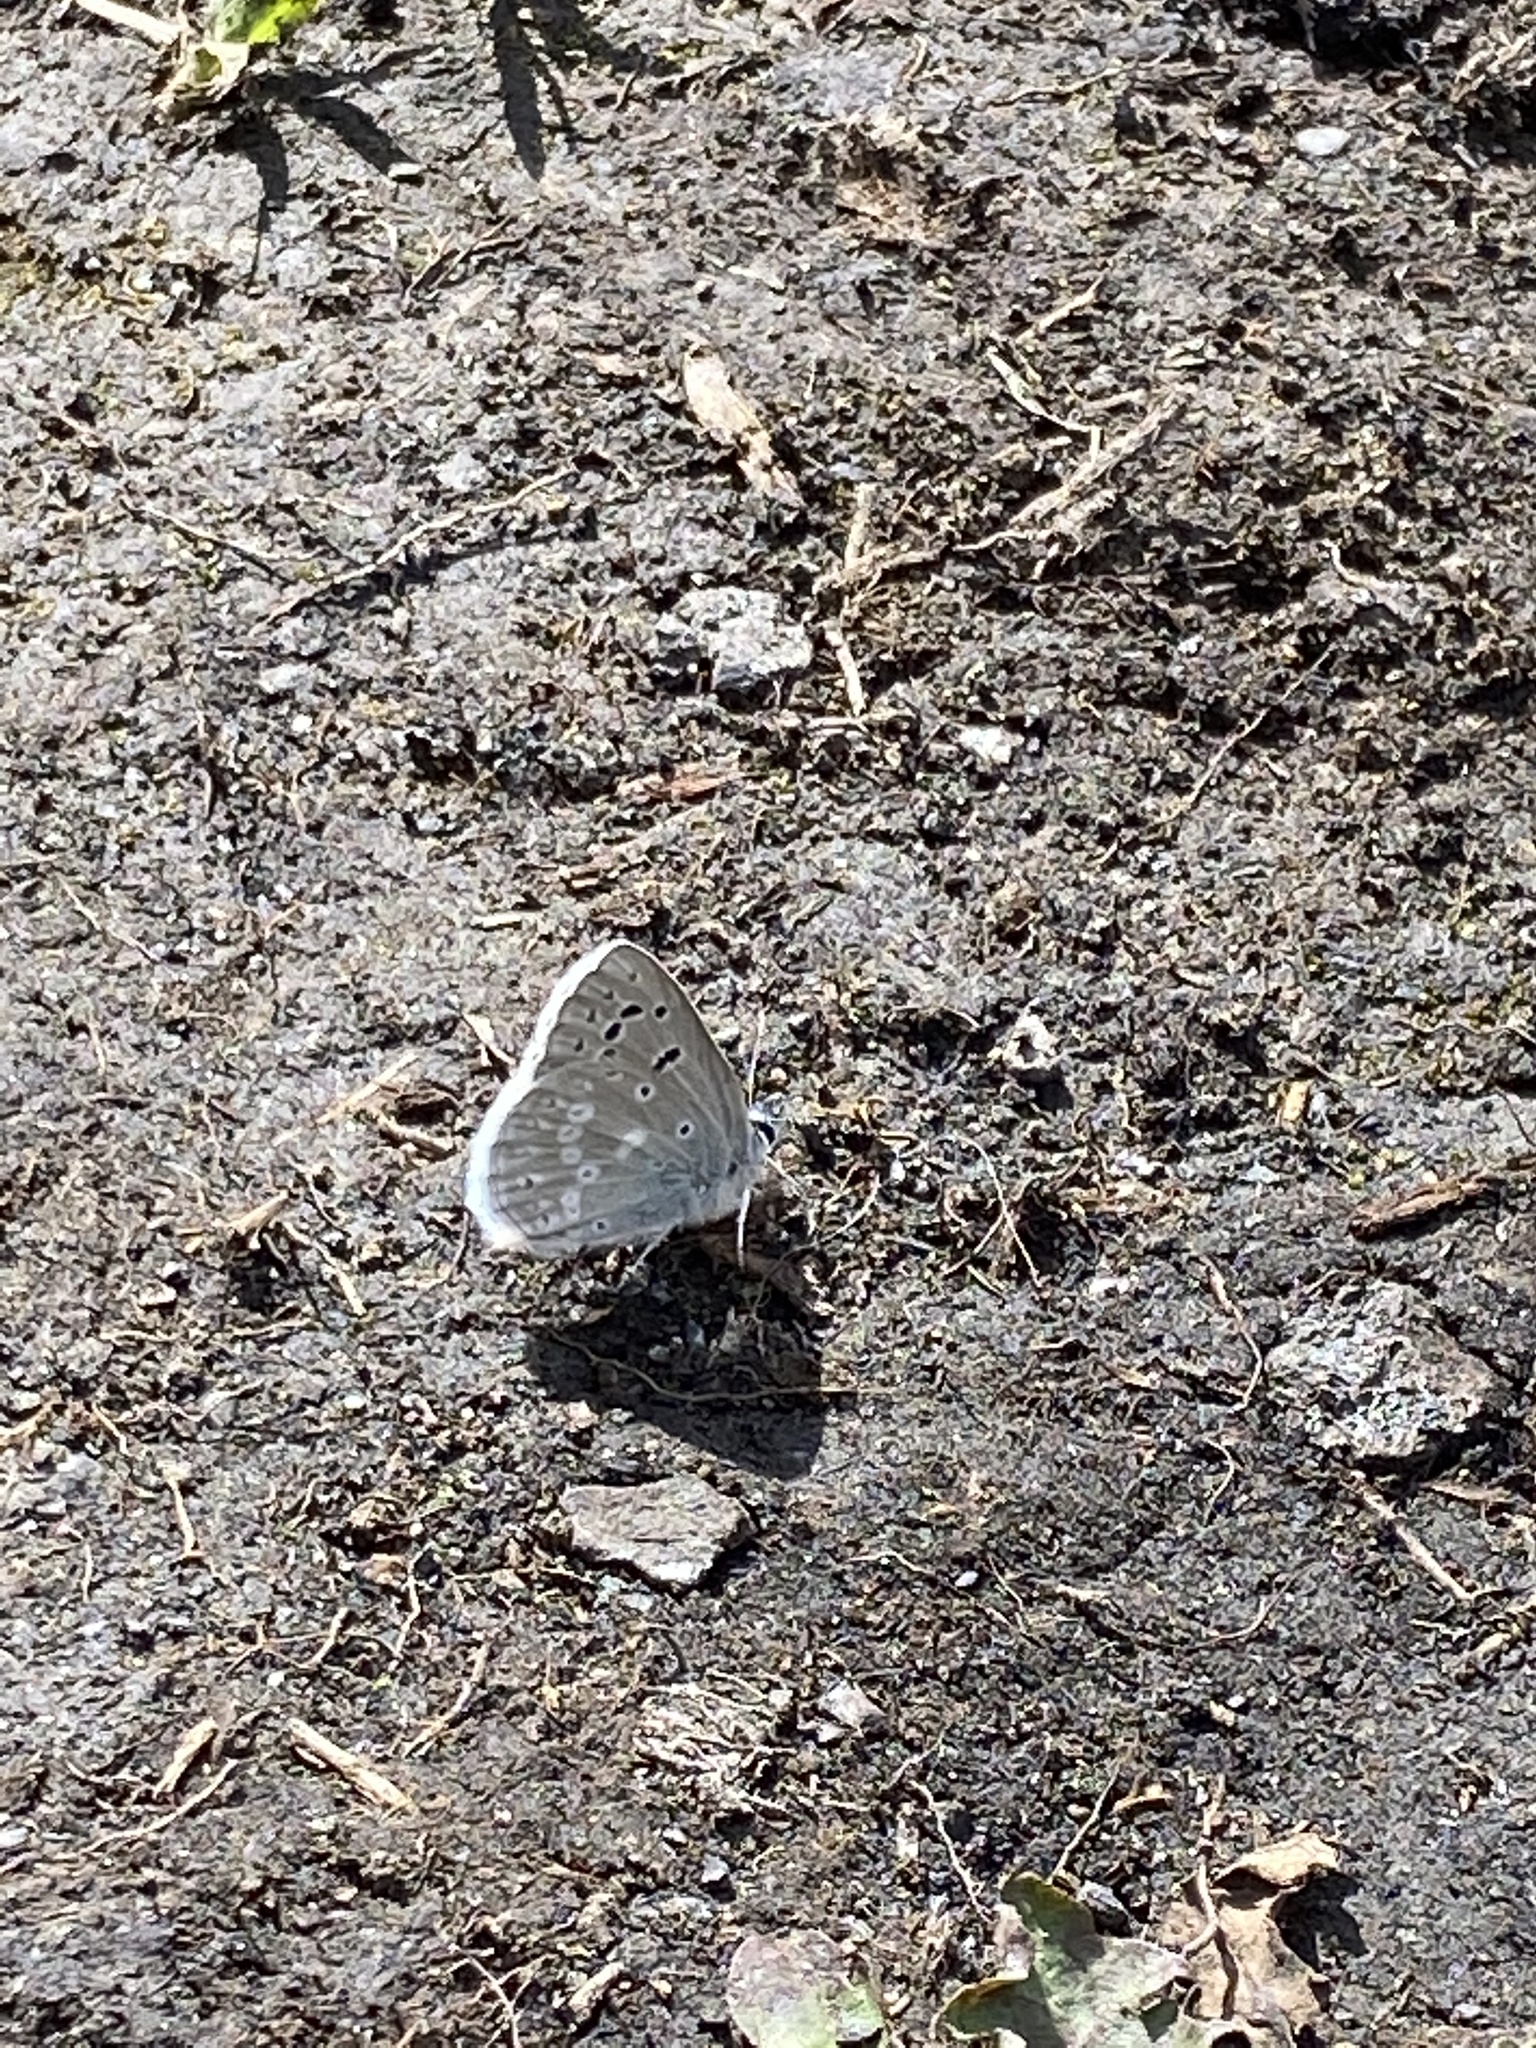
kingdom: Animalia
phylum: Arthropoda
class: Insecta
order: Lepidoptera
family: Lycaenidae
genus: Icaricia
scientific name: Icaricia icarioides
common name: Boisduval's blue
